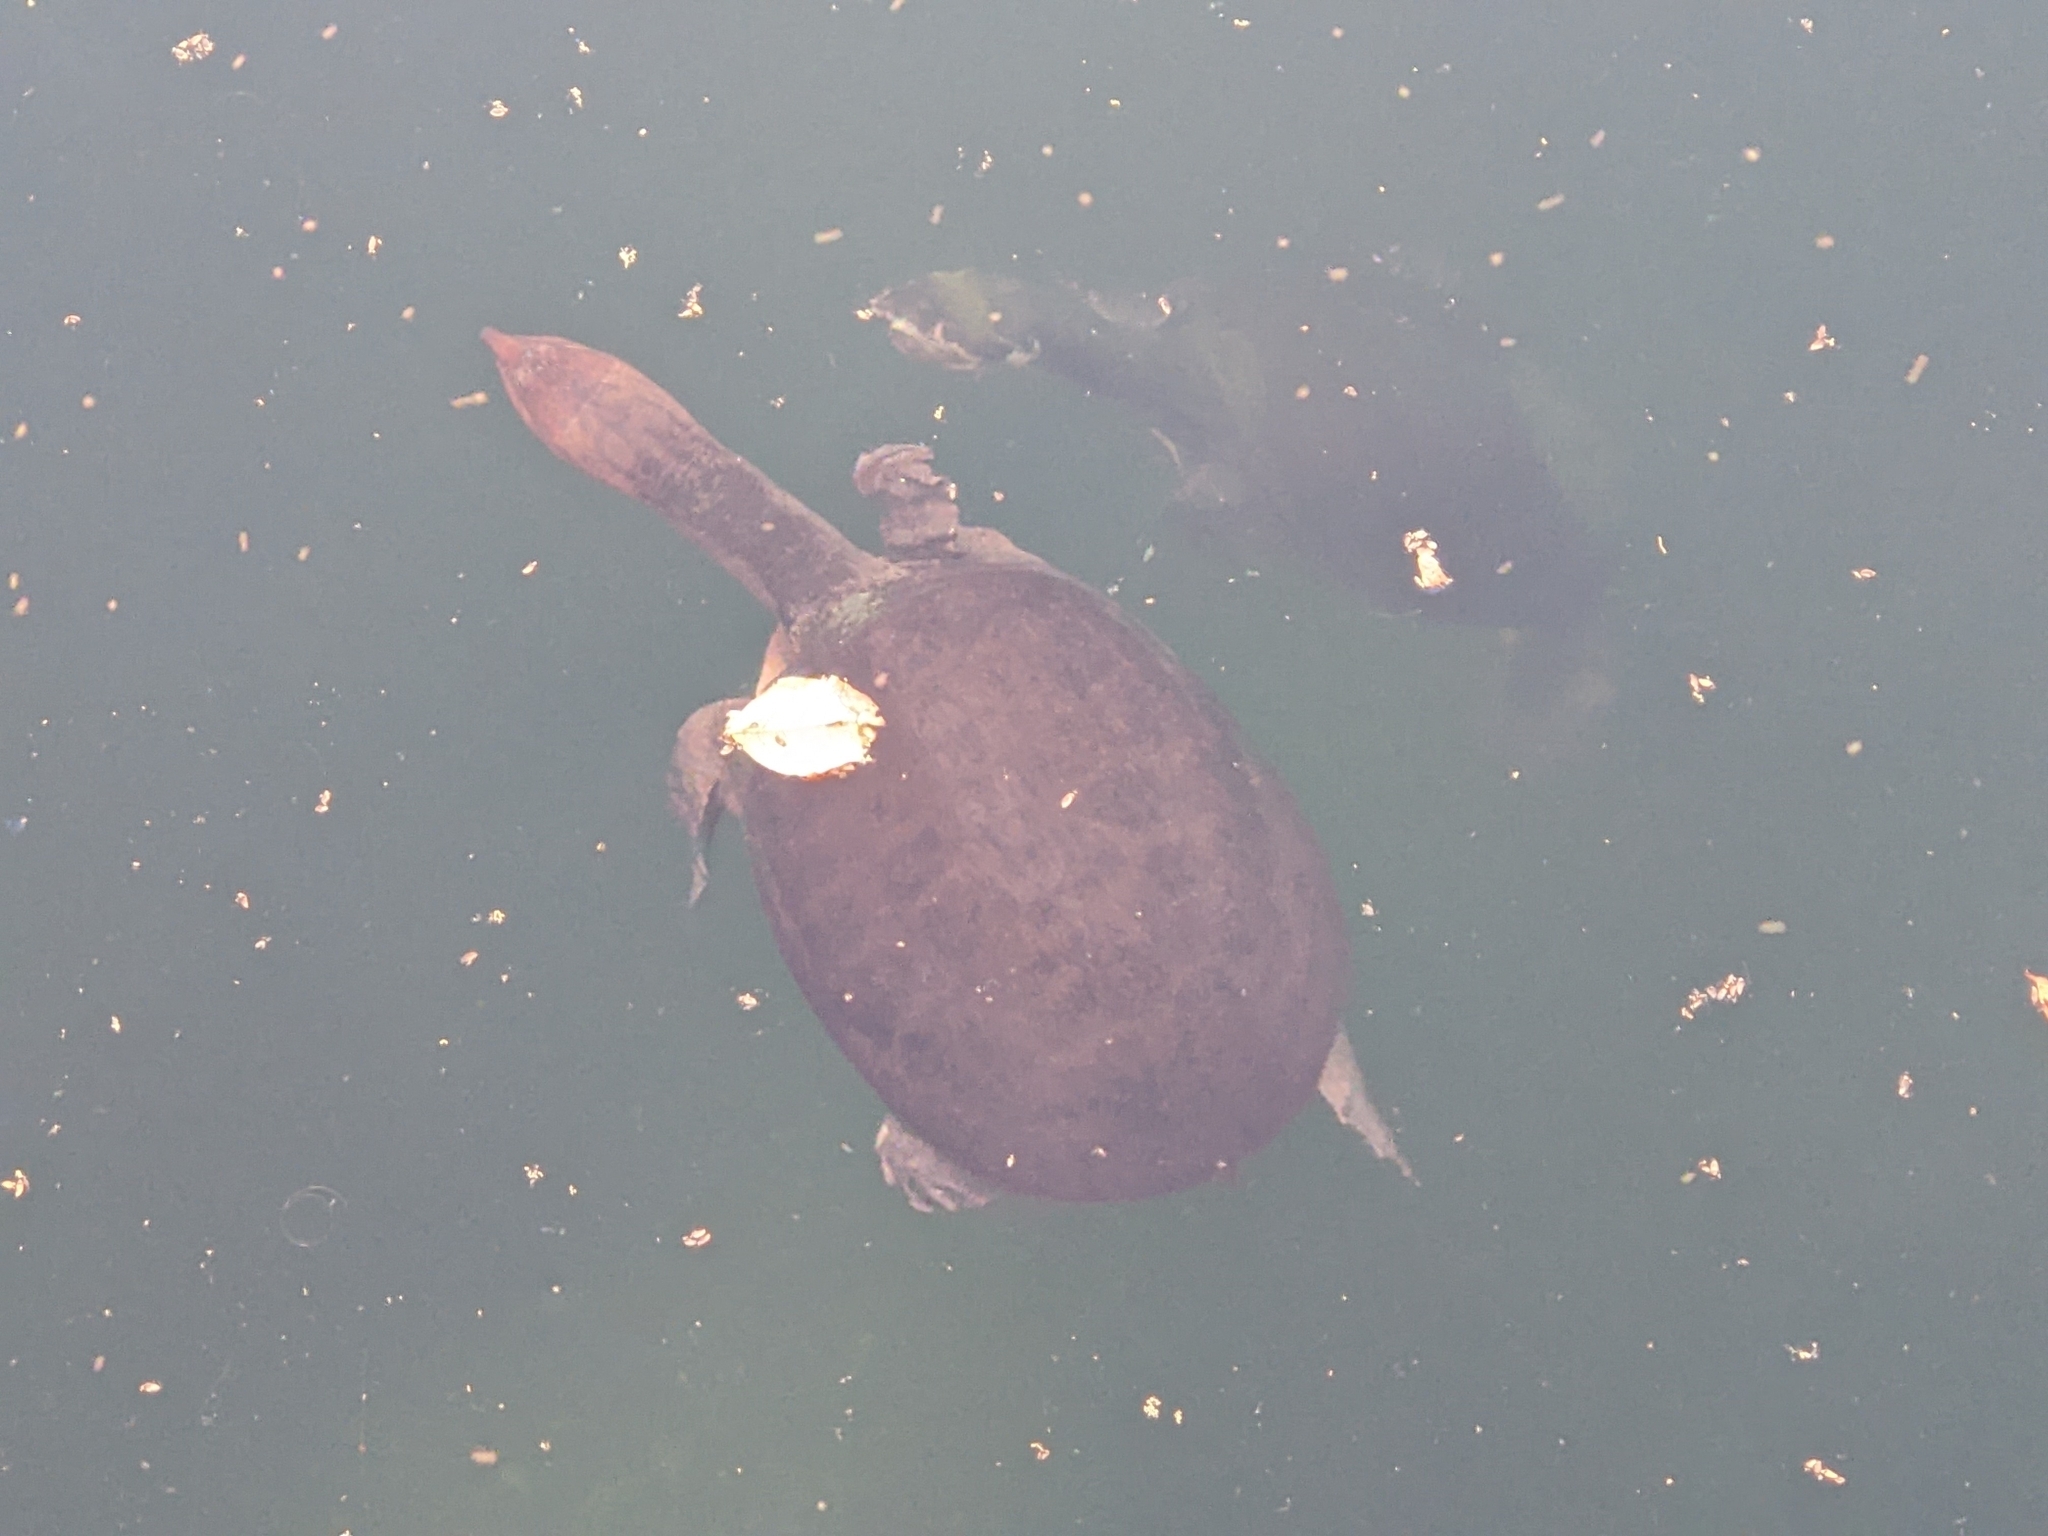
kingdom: Animalia
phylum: Chordata
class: Testudines
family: Trionychidae
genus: Apalone
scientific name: Apalone ferox
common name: Florida softshell turtle
